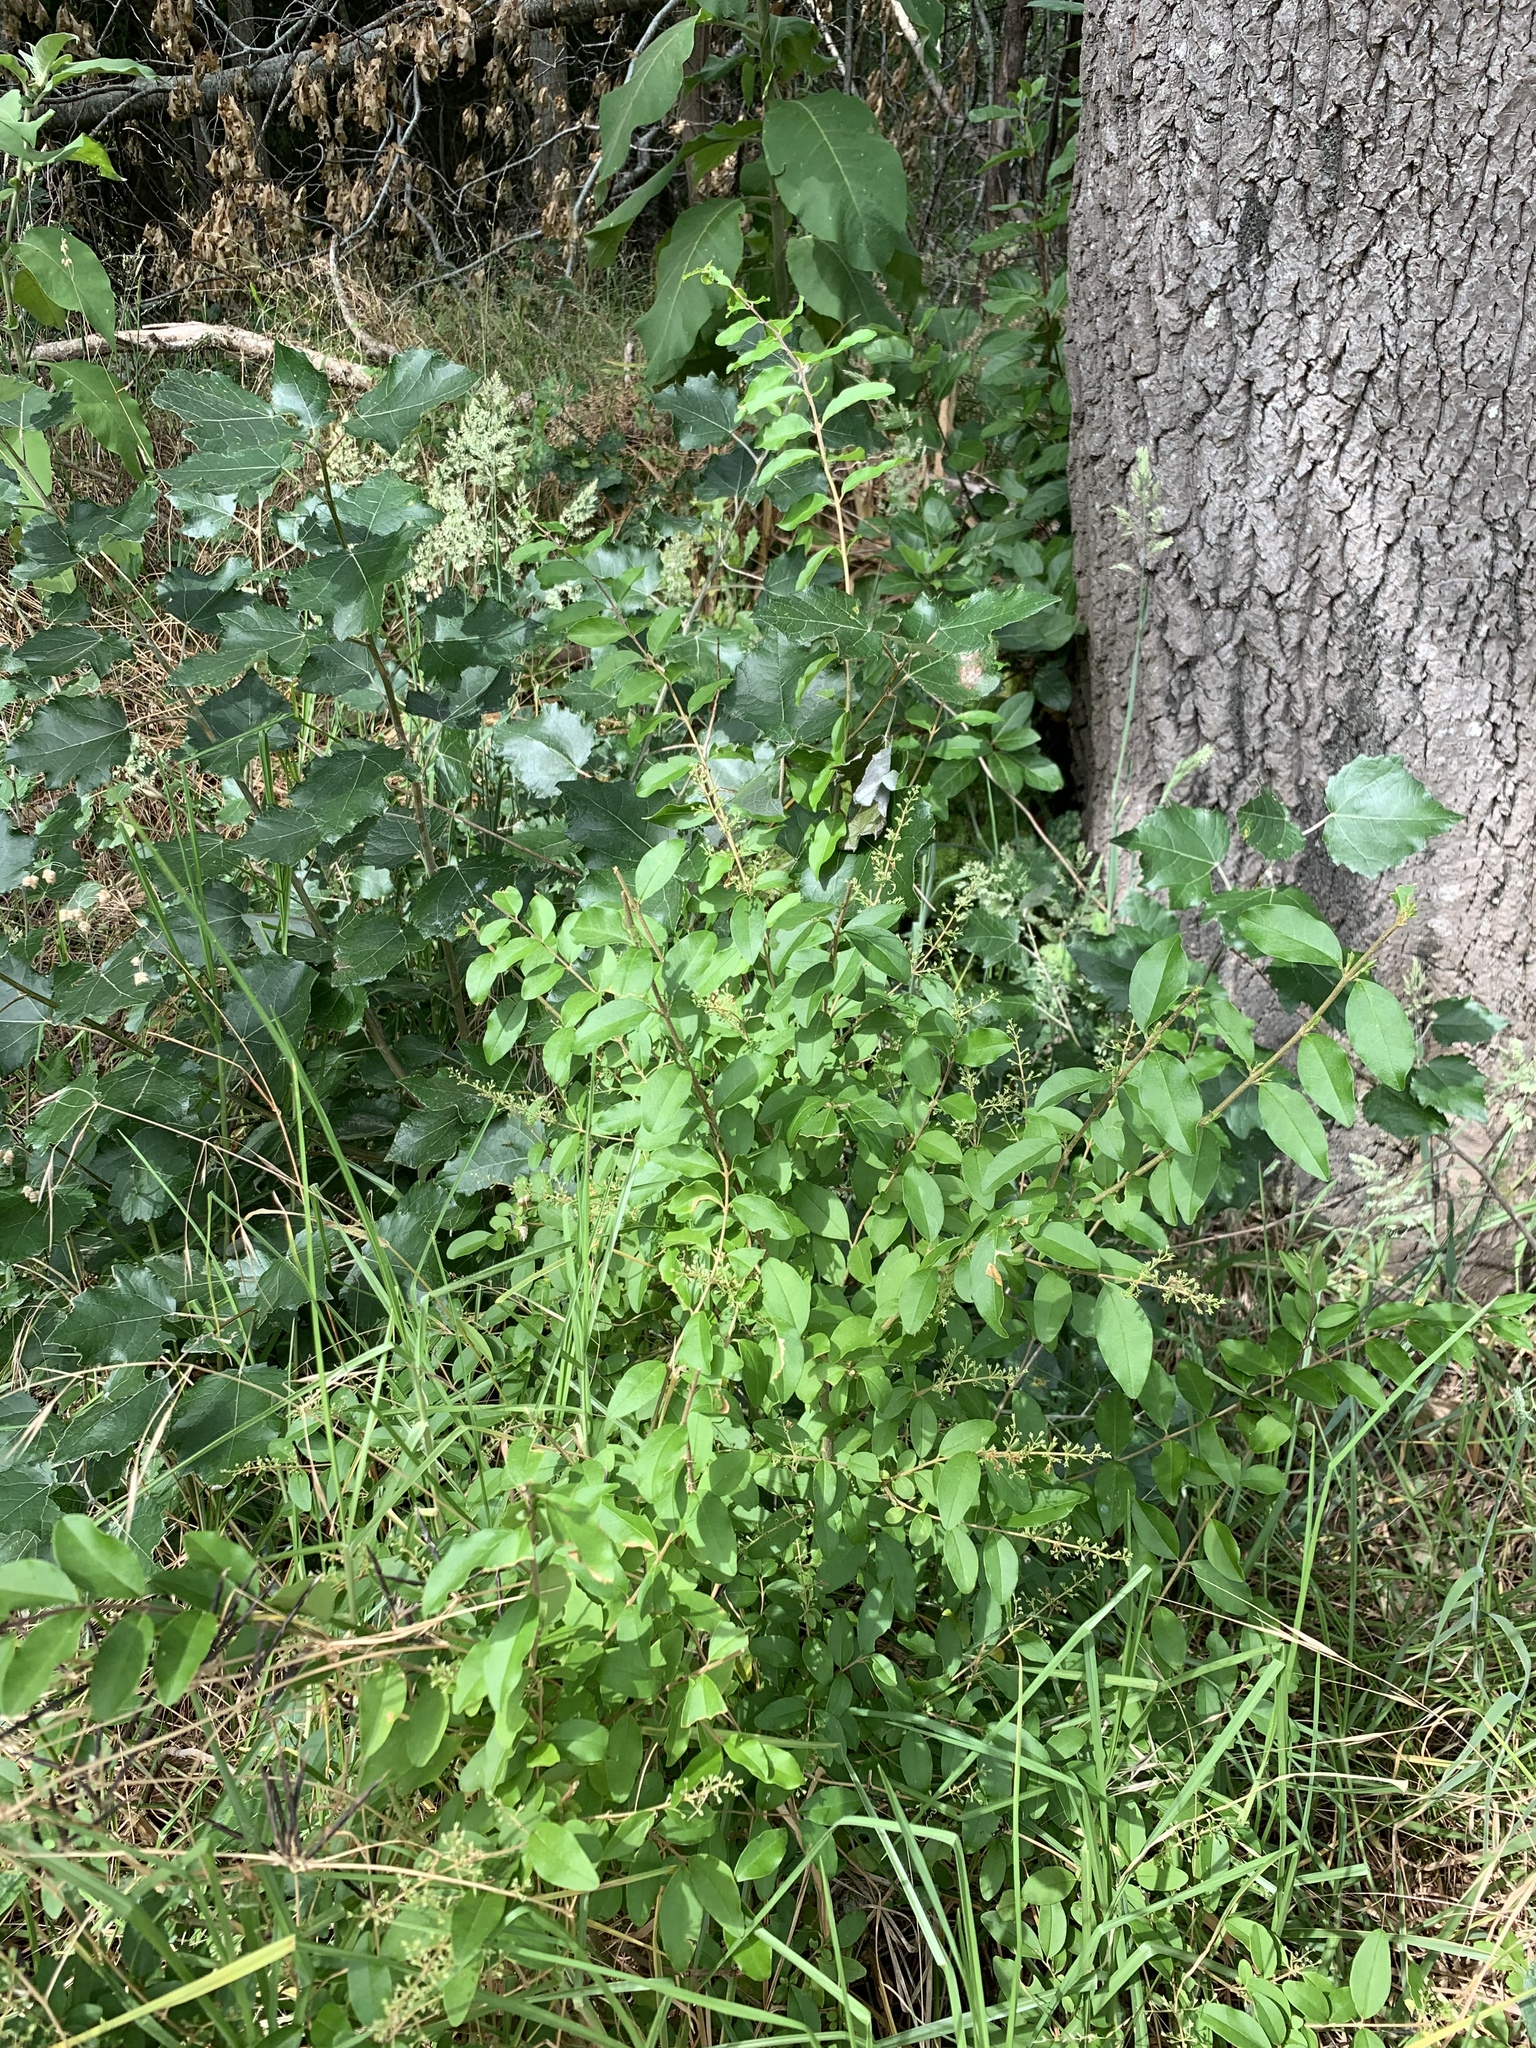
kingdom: Plantae
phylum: Tracheophyta
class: Magnoliopsida
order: Lamiales
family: Oleaceae
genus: Ligustrum
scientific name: Ligustrum sinense
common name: Chinese privet
